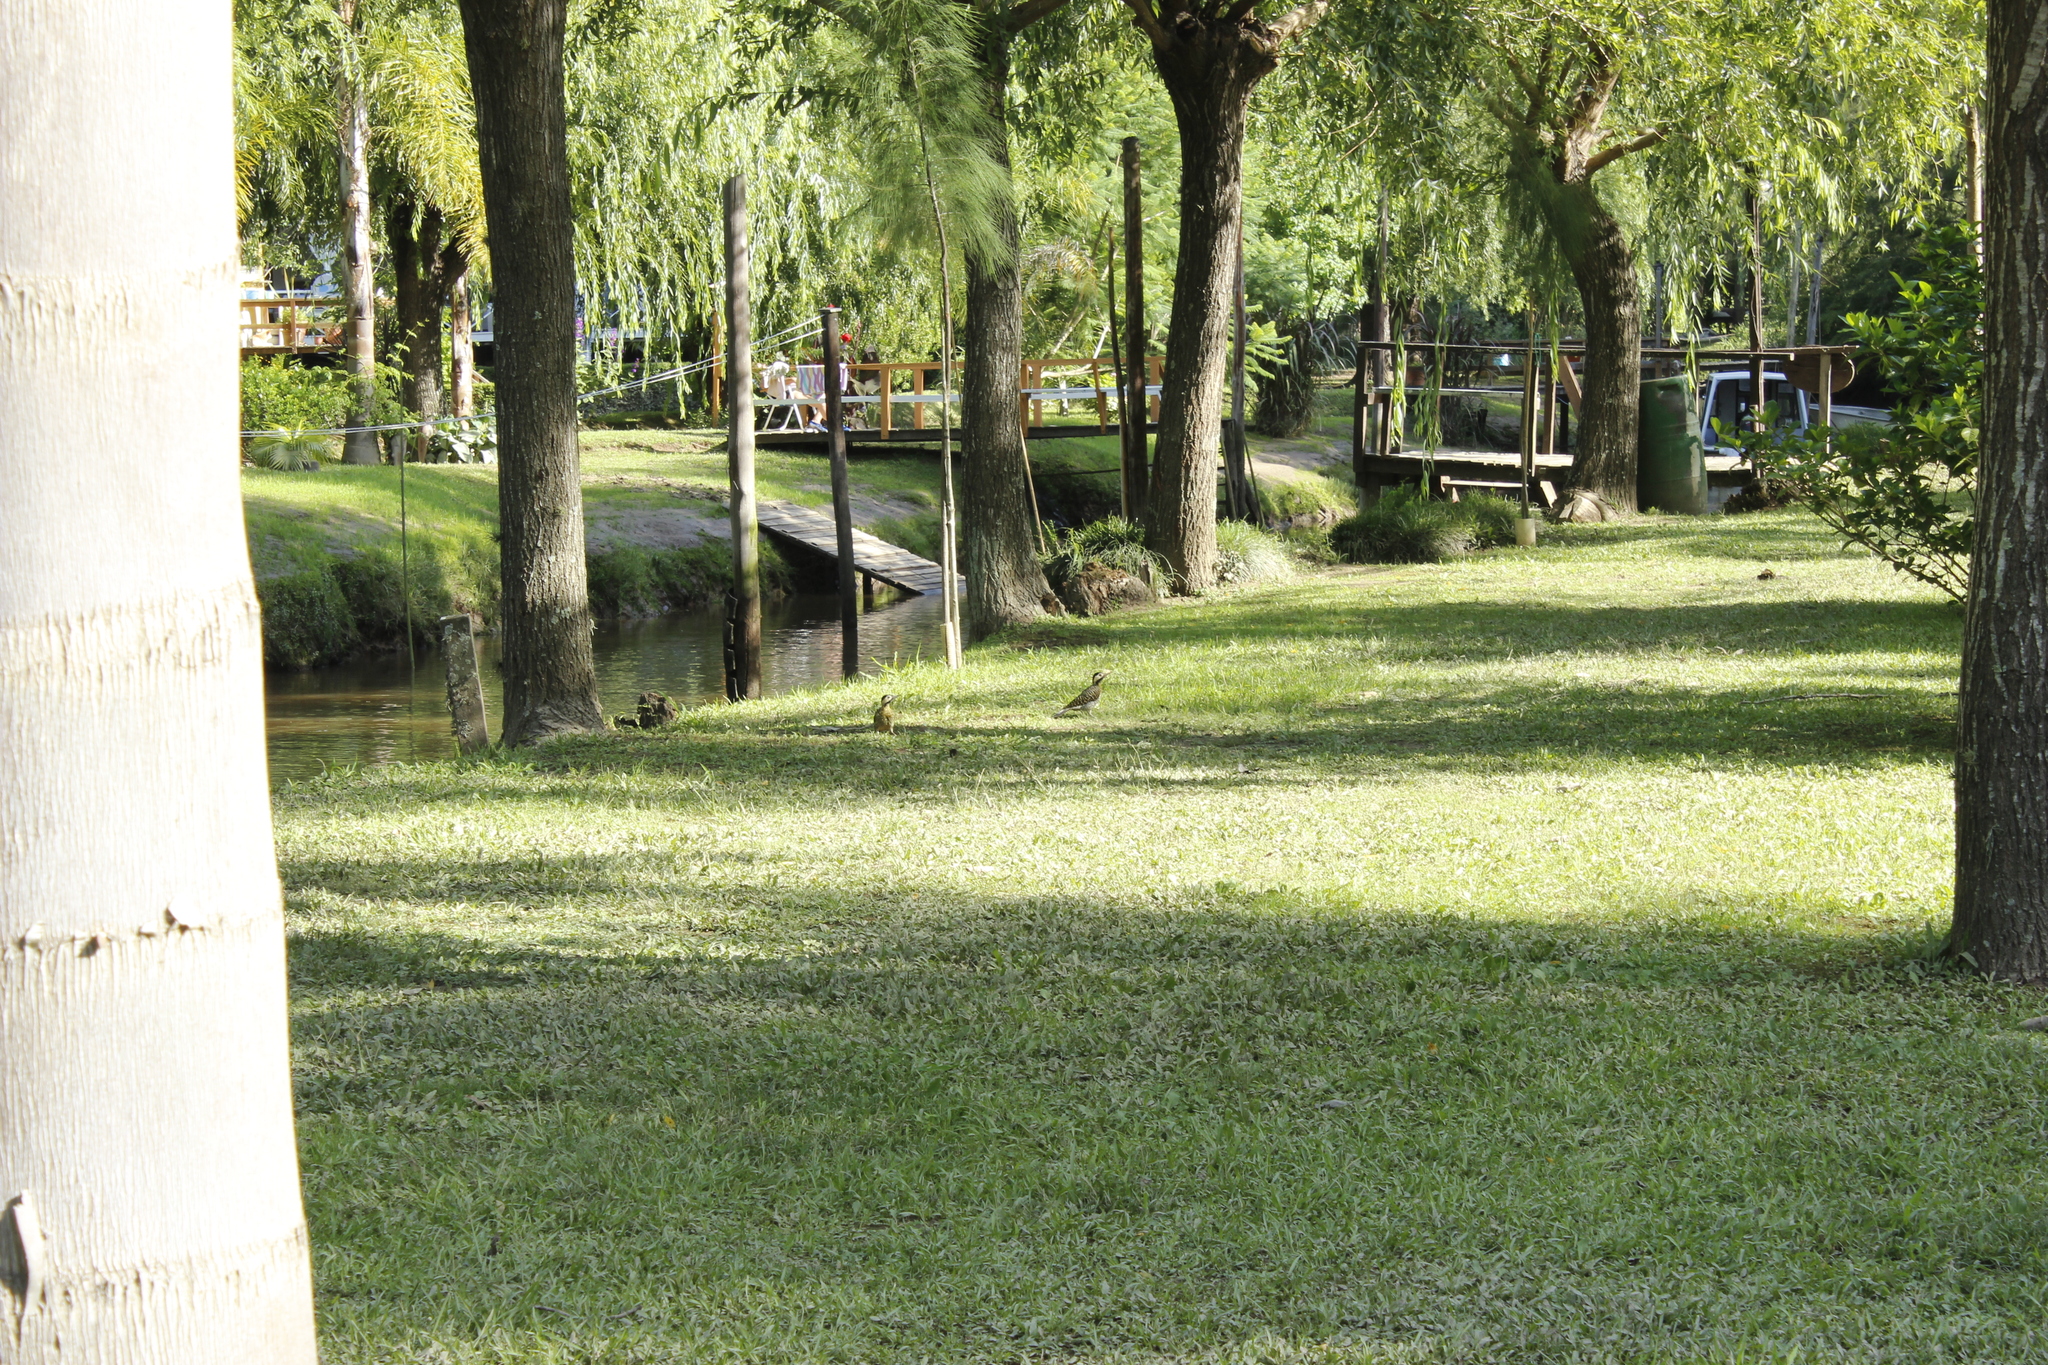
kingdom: Animalia
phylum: Chordata
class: Aves
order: Piciformes
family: Picidae
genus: Colaptes
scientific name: Colaptes melanochloros
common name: Green-barred woodpecker
